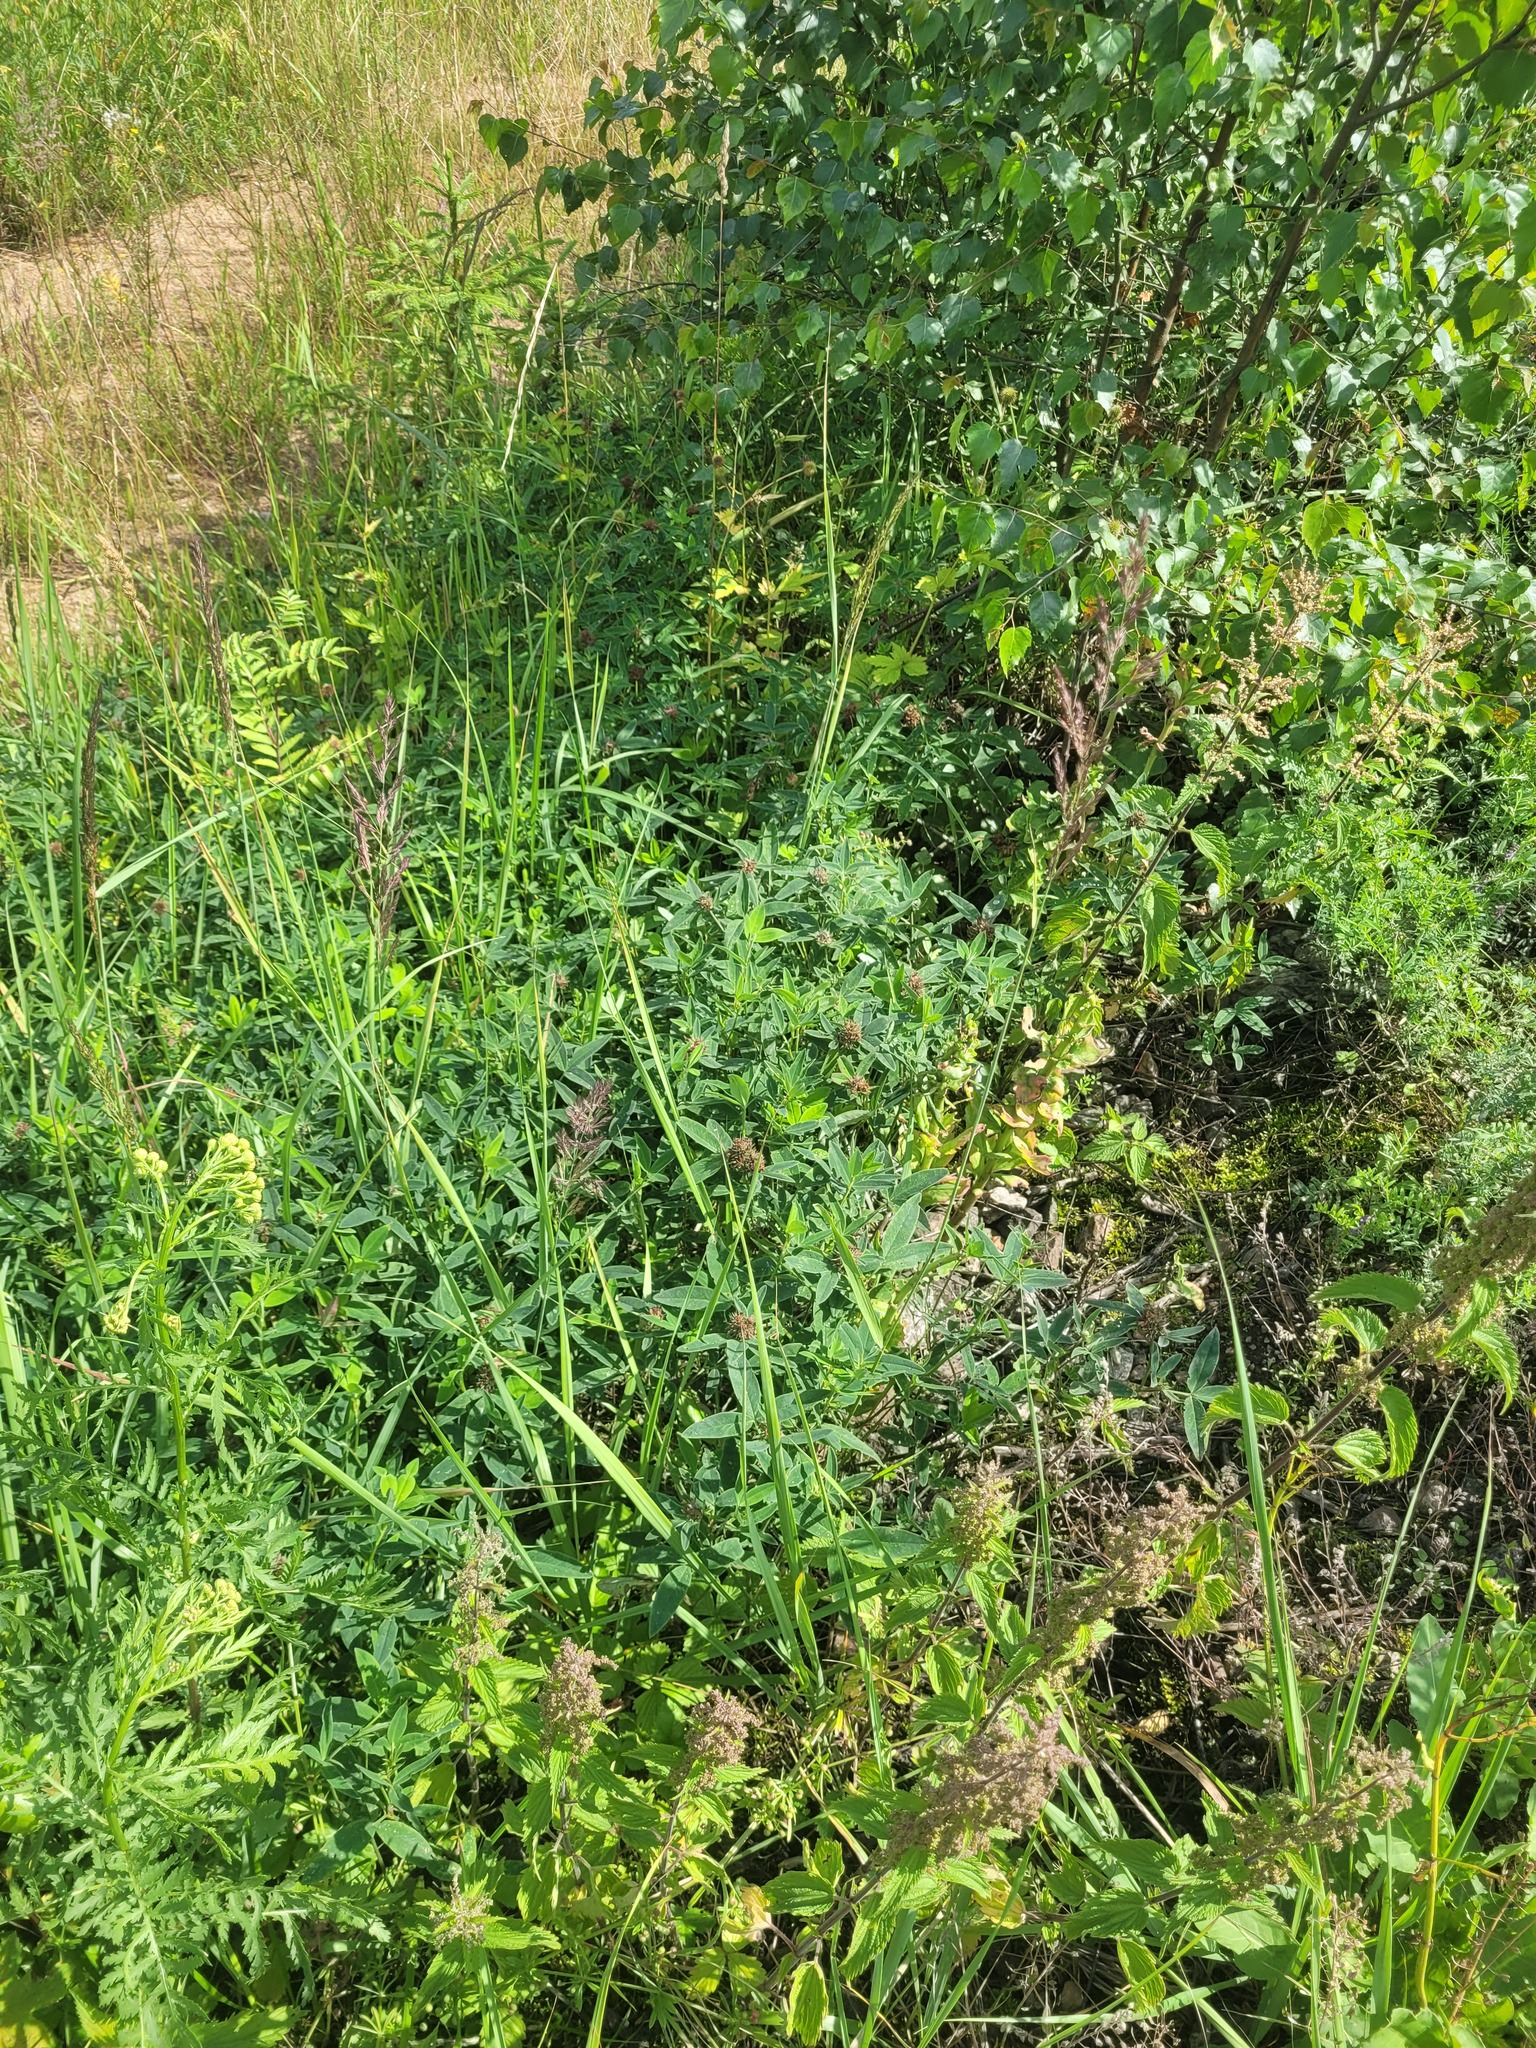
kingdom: Plantae
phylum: Tracheophyta
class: Magnoliopsida
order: Fabales
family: Fabaceae
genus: Trifolium
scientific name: Trifolium medium
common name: Zigzag clover
